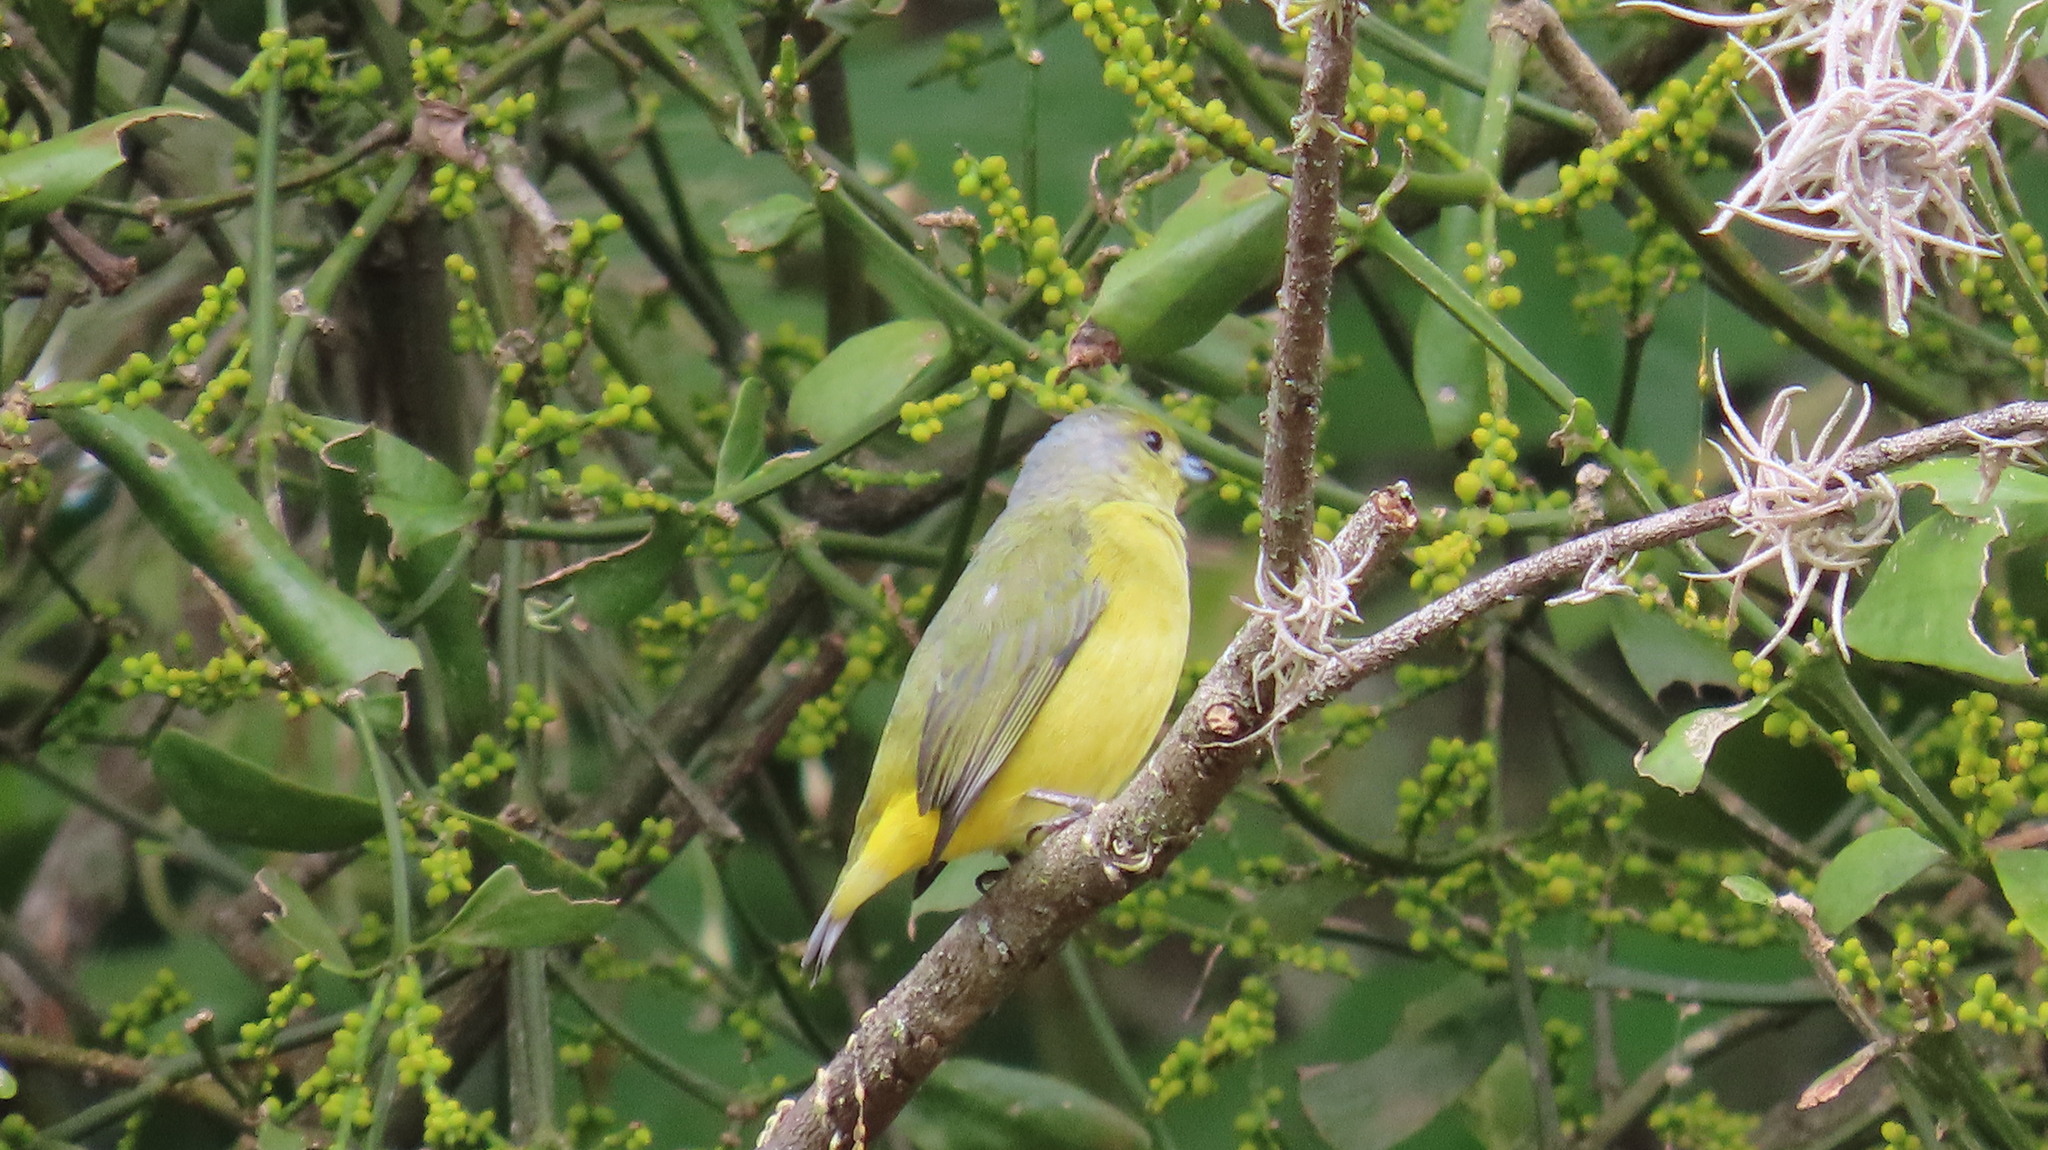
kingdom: Animalia
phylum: Chordata
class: Aves
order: Passeriformes
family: Fringillidae
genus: Euphonia
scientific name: Euphonia affinis
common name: Scrub euphonia
